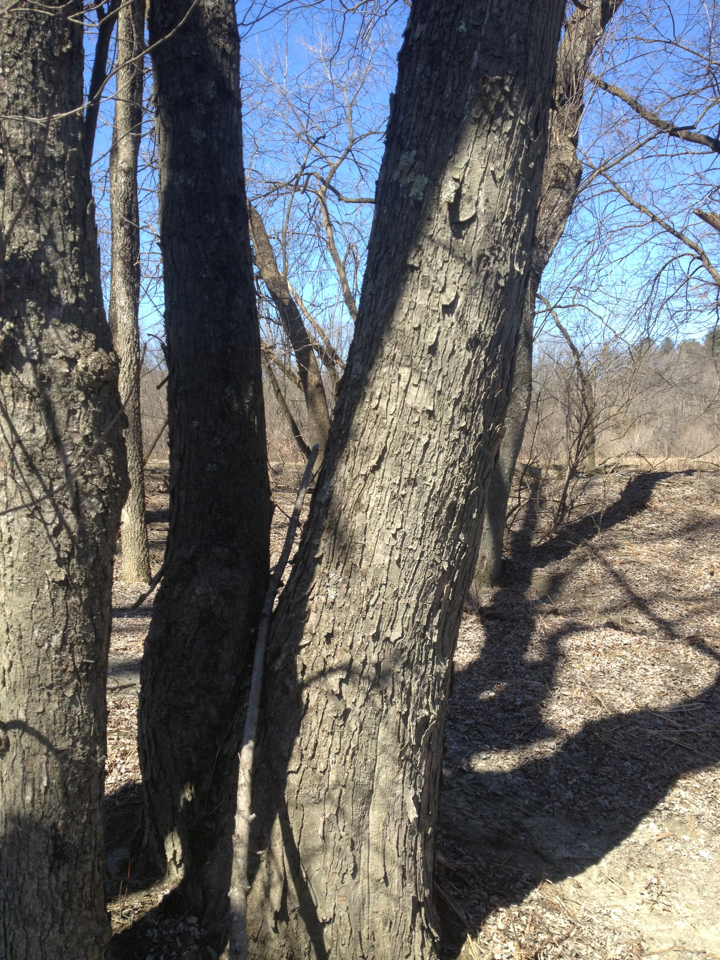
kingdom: Plantae
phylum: Tracheophyta
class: Magnoliopsida
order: Sapindales
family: Sapindaceae
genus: Acer
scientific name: Acer saccharinum
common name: Silver maple
